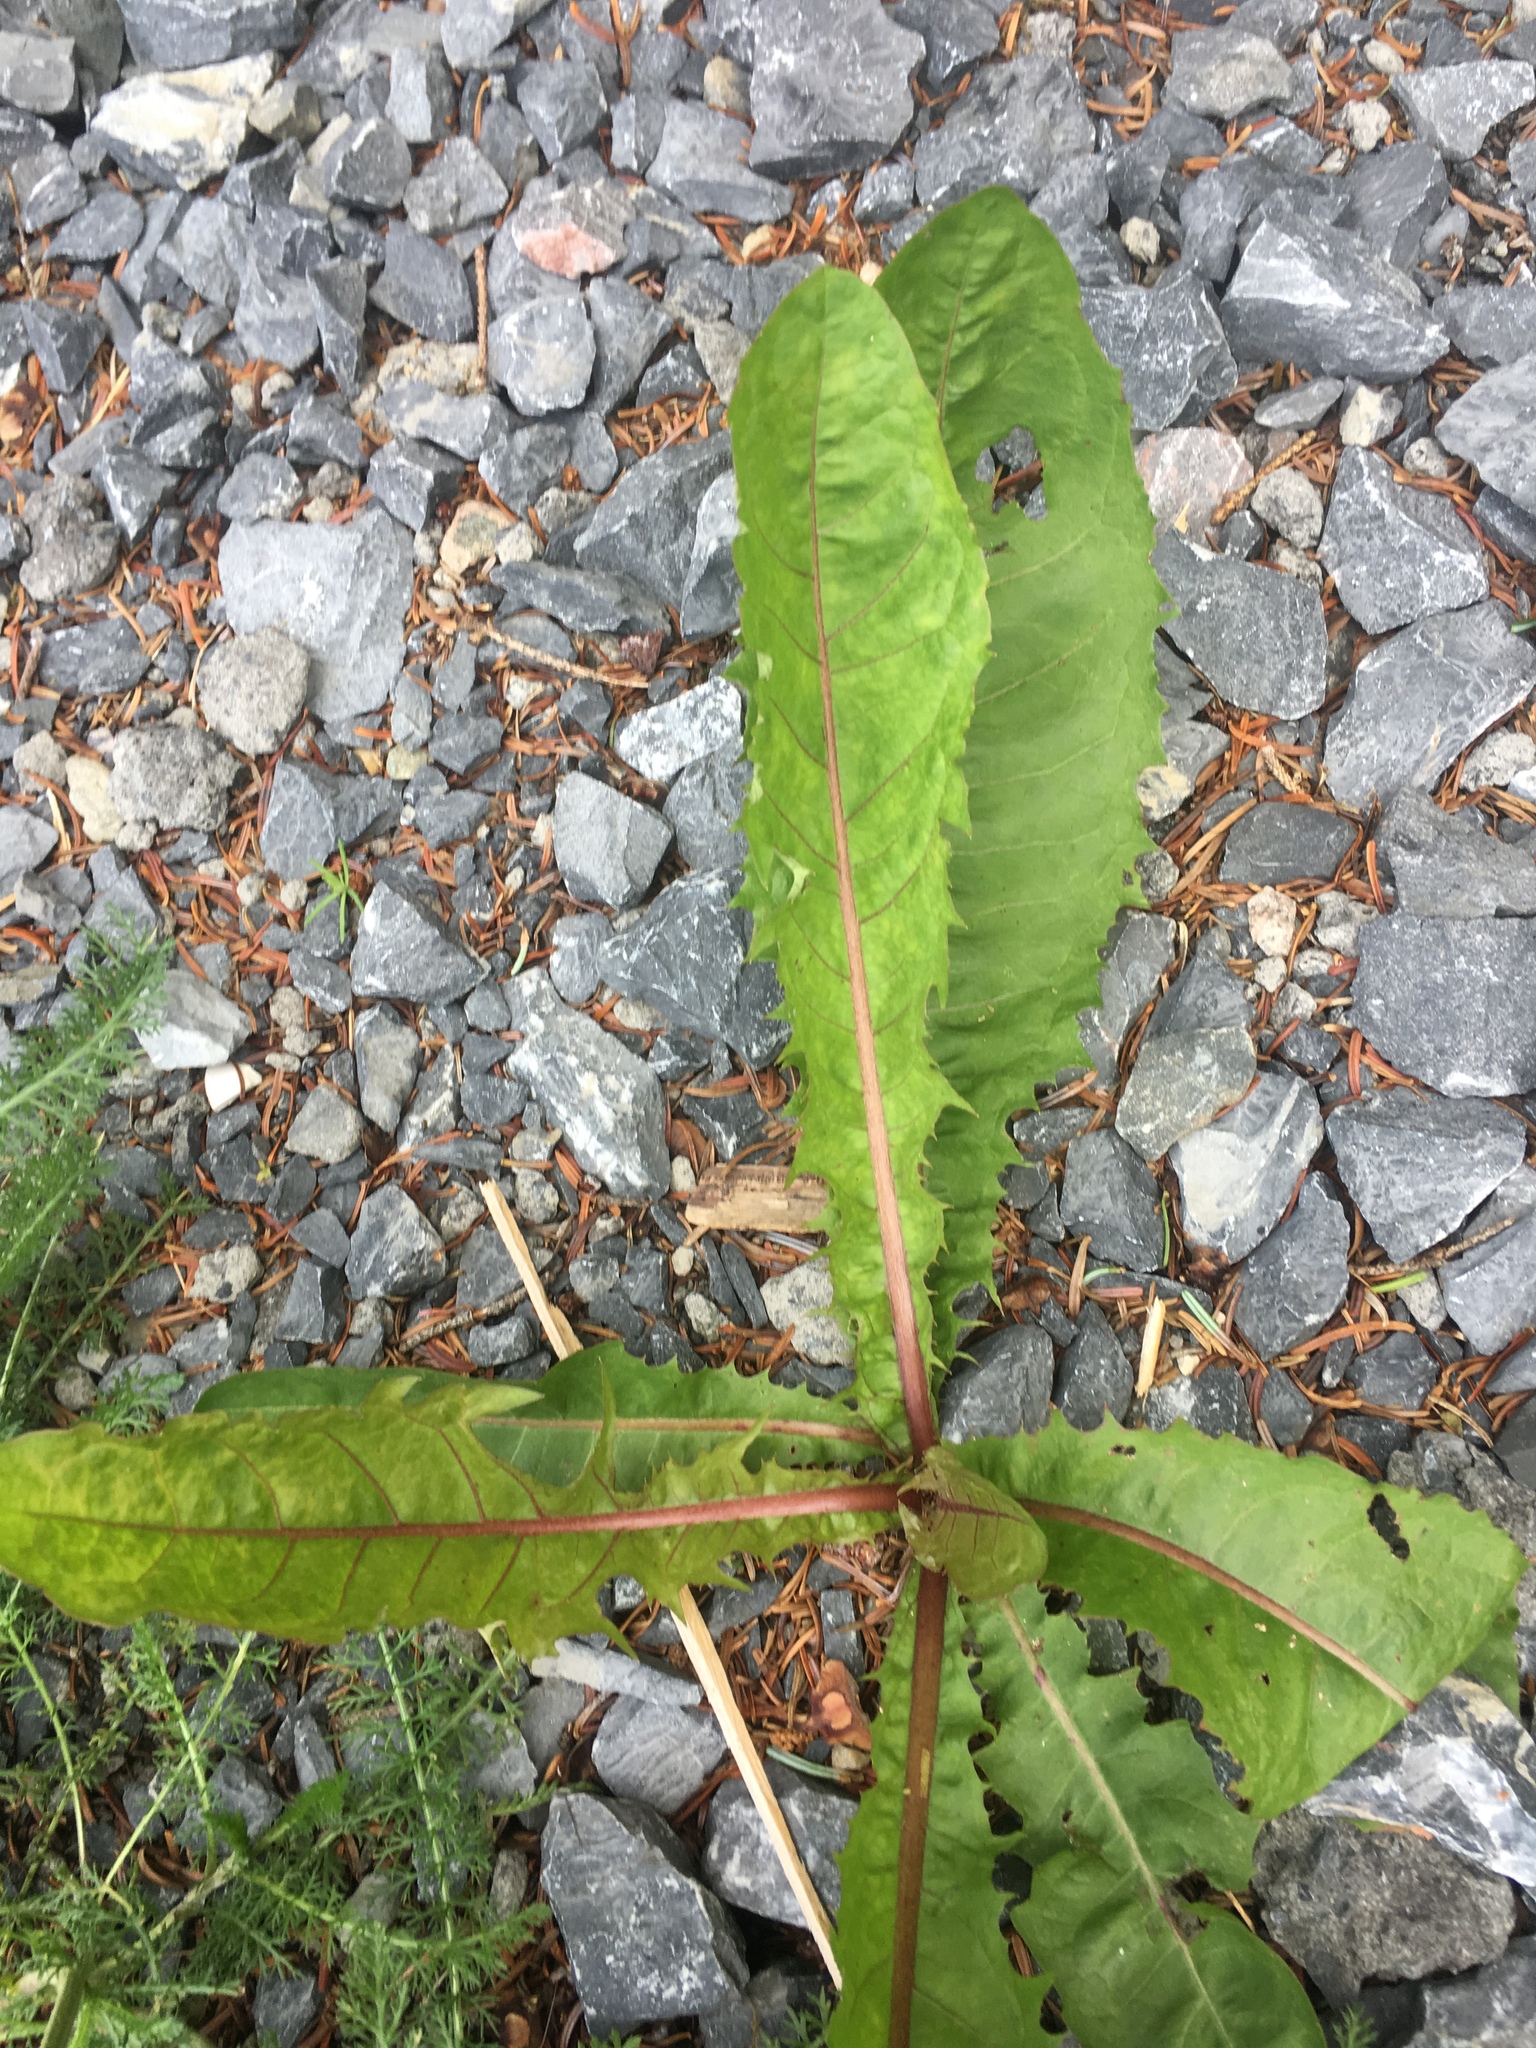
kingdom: Plantae
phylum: Tracheophyta
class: Magnoliopsida
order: Asterales
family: Asteraceae
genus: Taraxacum
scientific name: Taraxacum officinale
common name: Common dandelion
